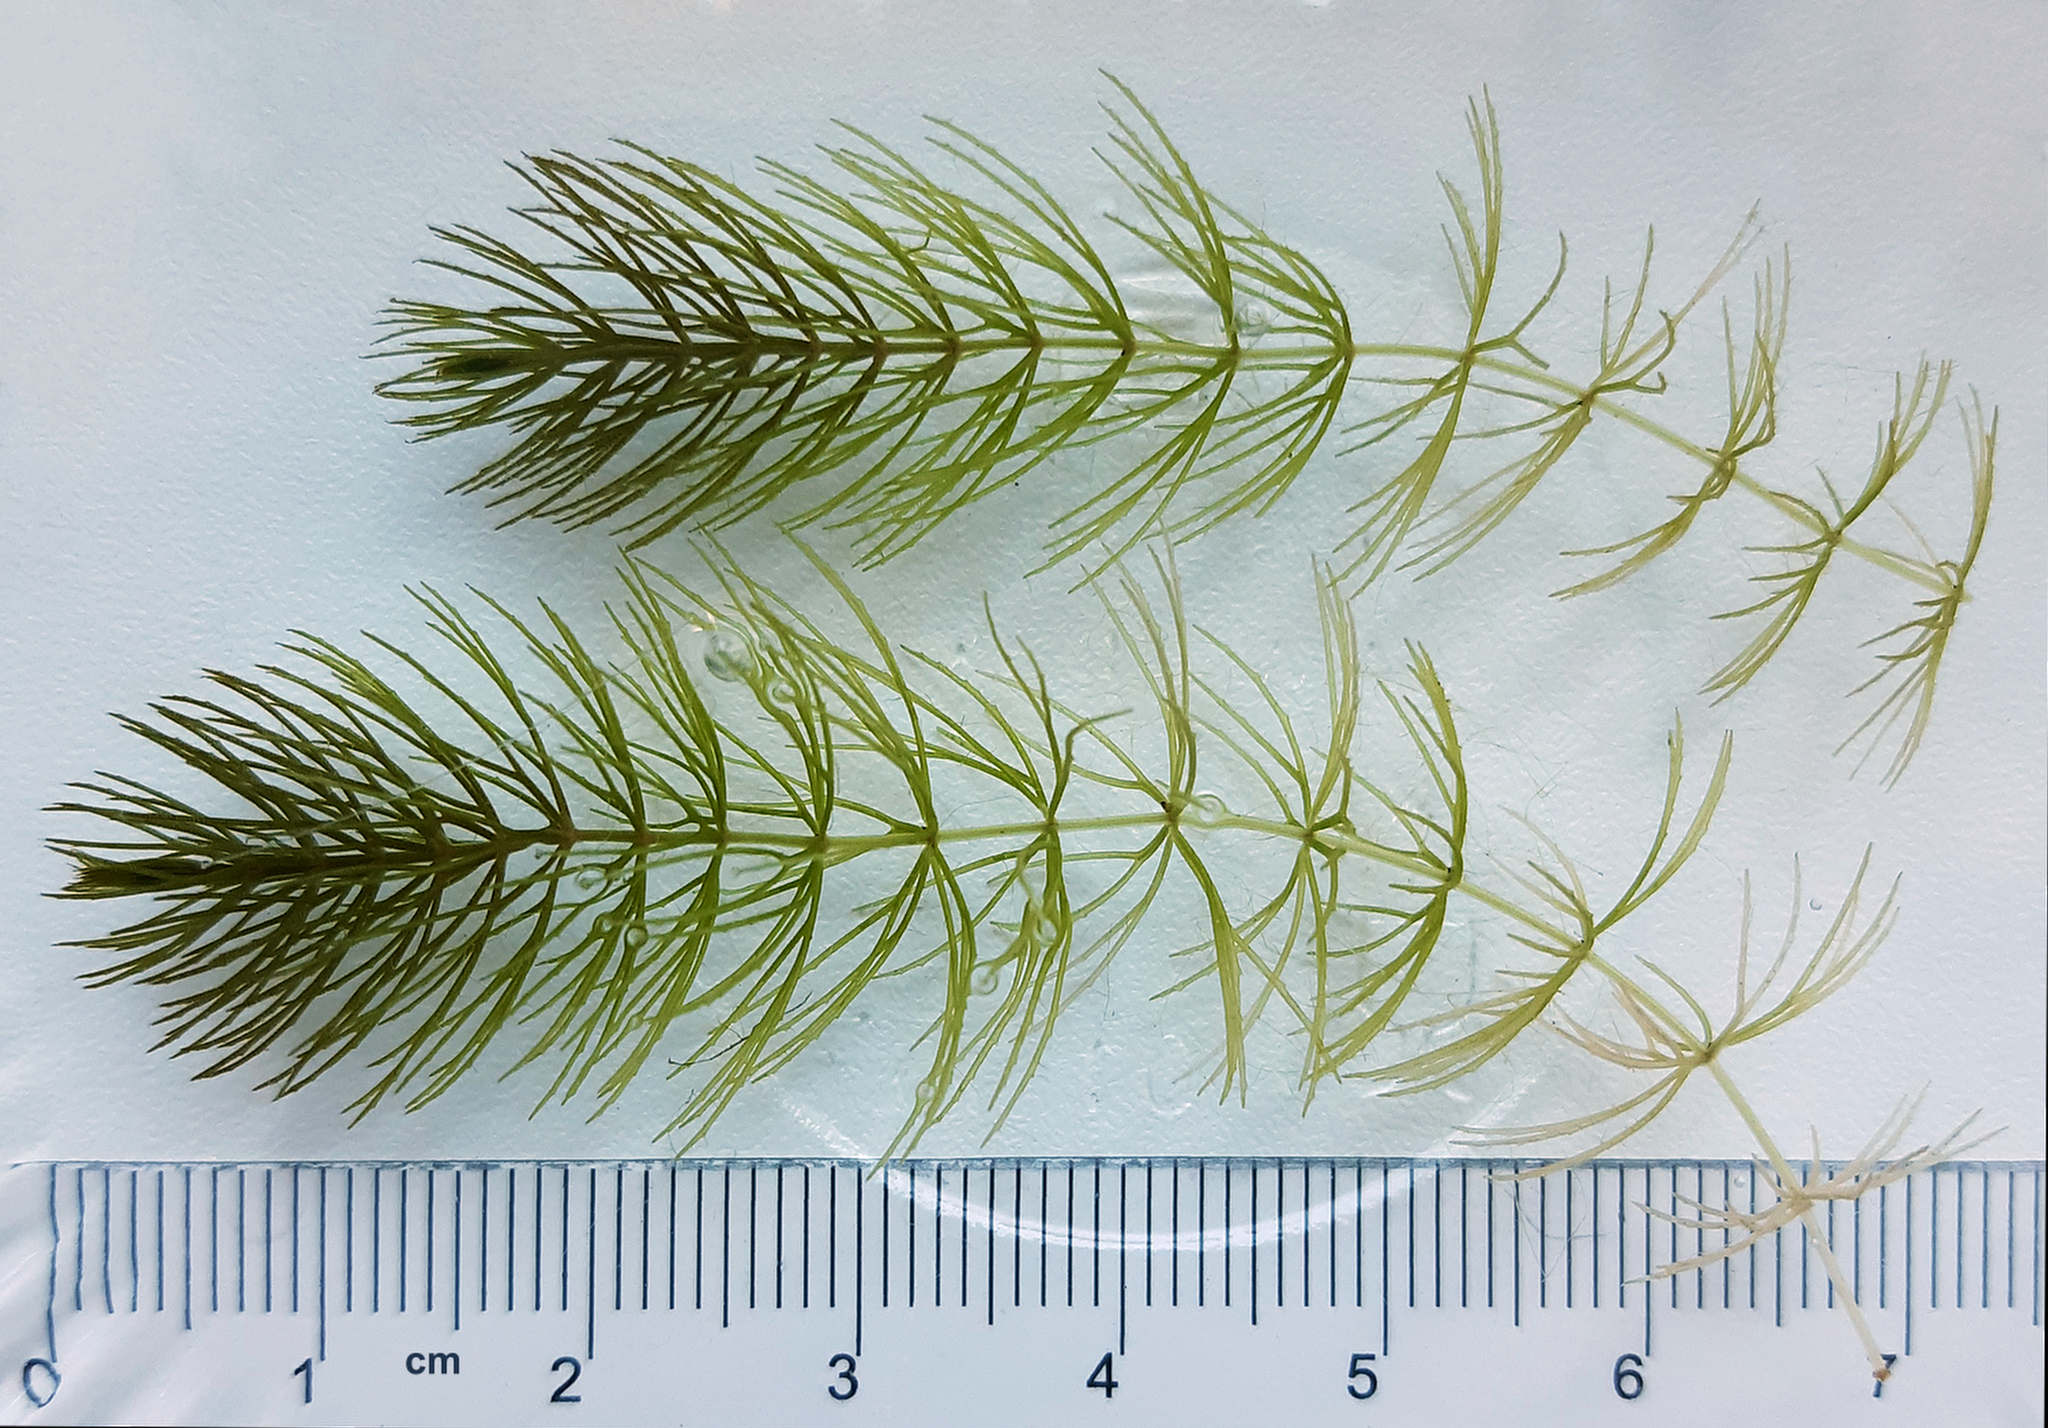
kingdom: Plantae
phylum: Tracheophyta
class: Magnoliopsida
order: Ceratophyllales
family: Ceratophyllaceae
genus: Ceratophyllum
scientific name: Ceratophyllum demersum
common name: Rigid hornwort
